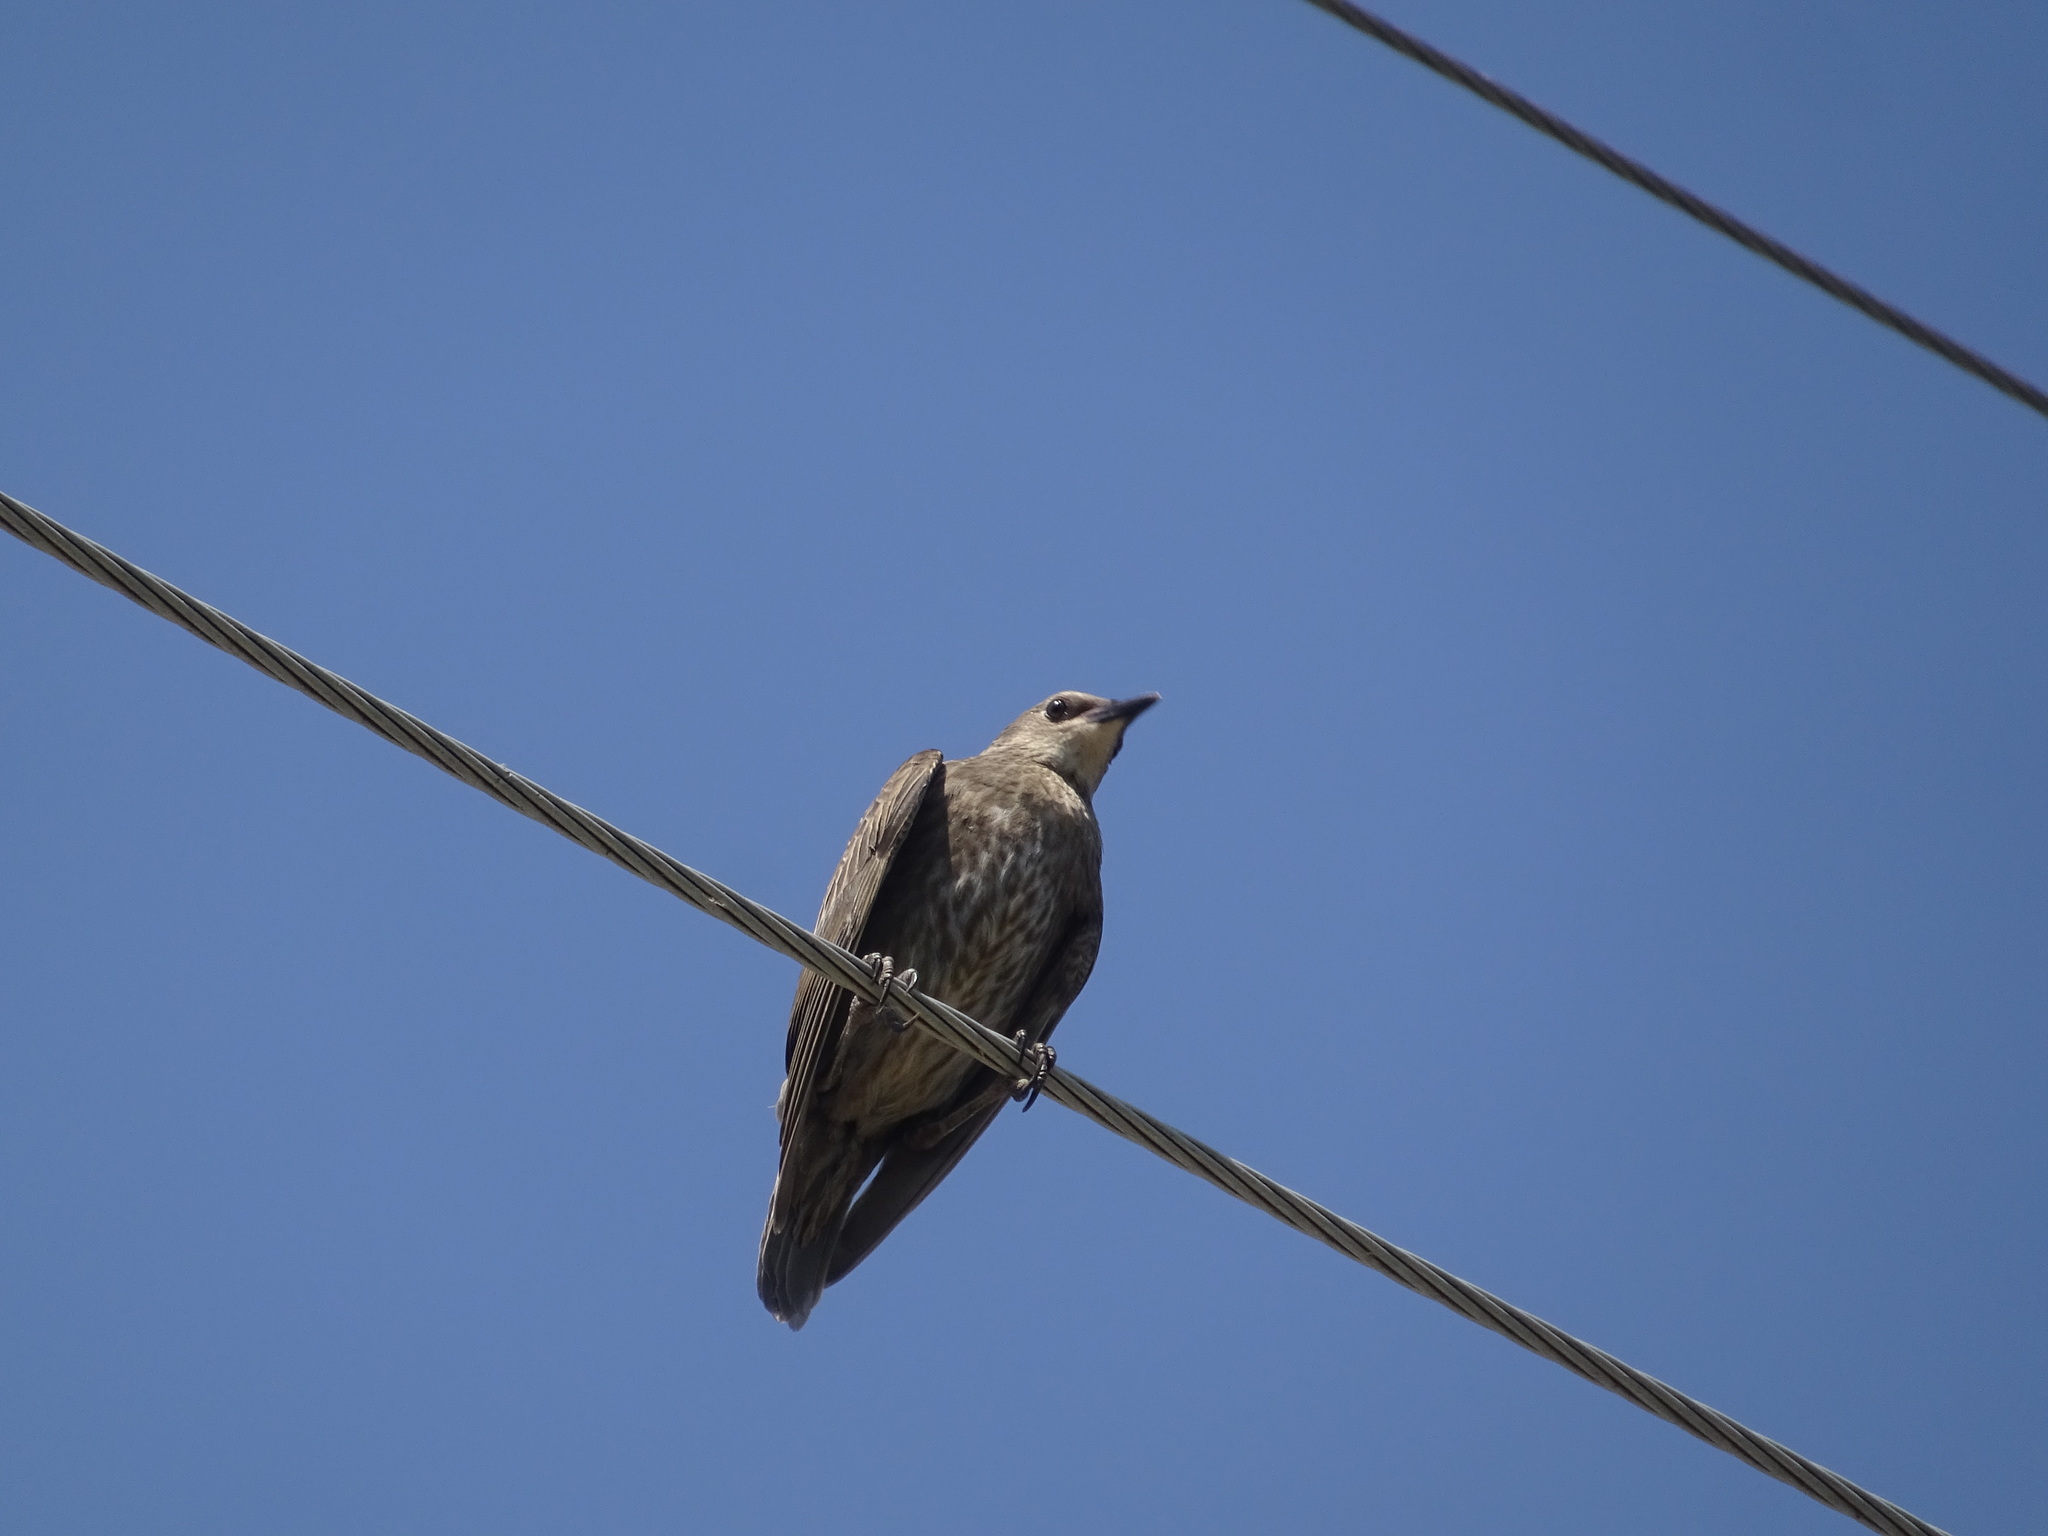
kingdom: Animalia
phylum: Chordata
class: Aves
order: Passeriformes
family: Sturnidae
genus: Sturnus
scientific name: Sturnus vulgaris
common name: Common starling
